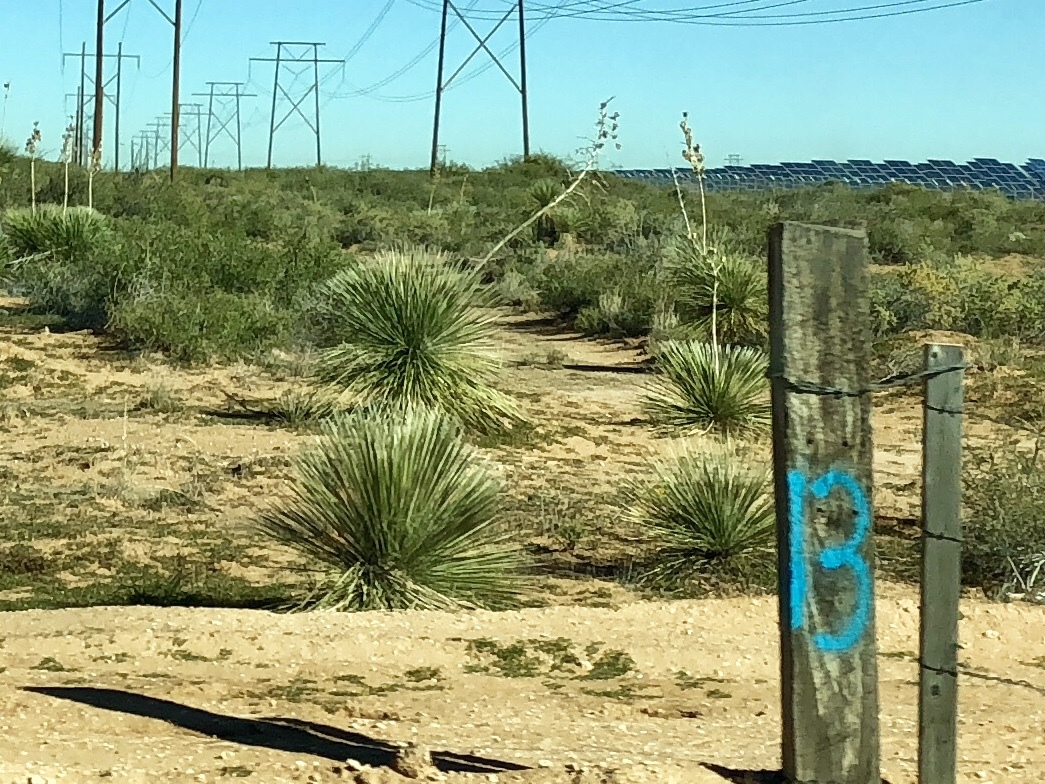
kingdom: Plantae
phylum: Tracheophyta
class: Liliopsida
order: Asparagales
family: Asparagaceae
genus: Yucca
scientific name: Yucca elata
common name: Palmella
